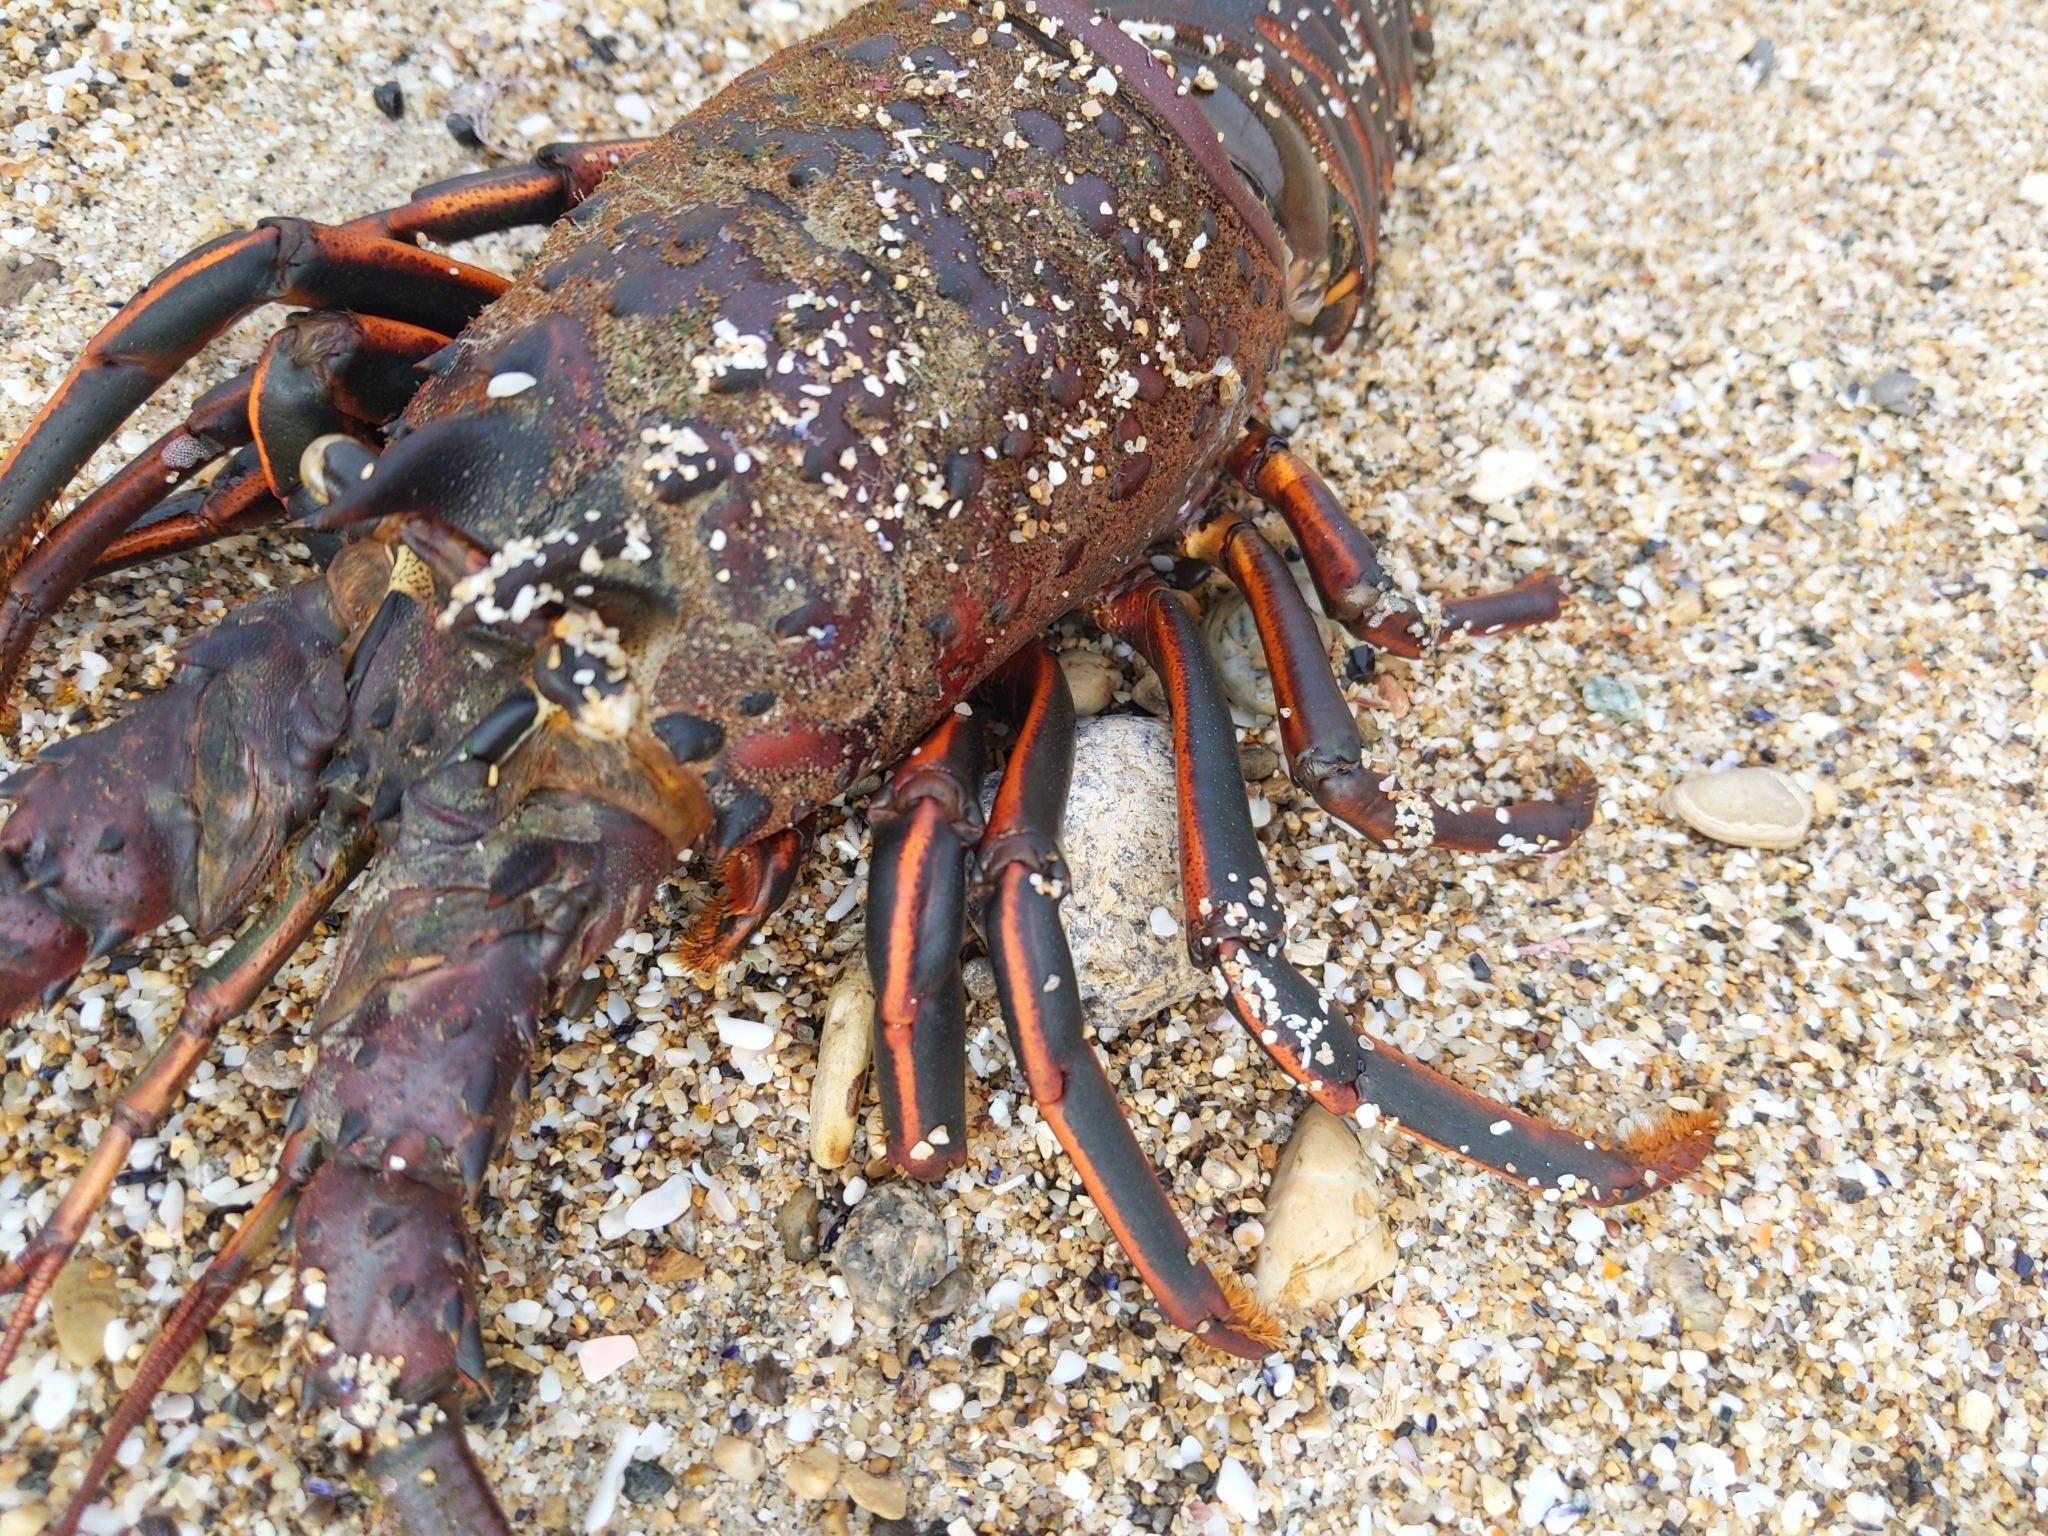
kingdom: Animalia
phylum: Arthropoda
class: Malacostraca
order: Decapoda
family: Palinuridae
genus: Panulirus
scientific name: Panulirus interruptus
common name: California spiny lobster
